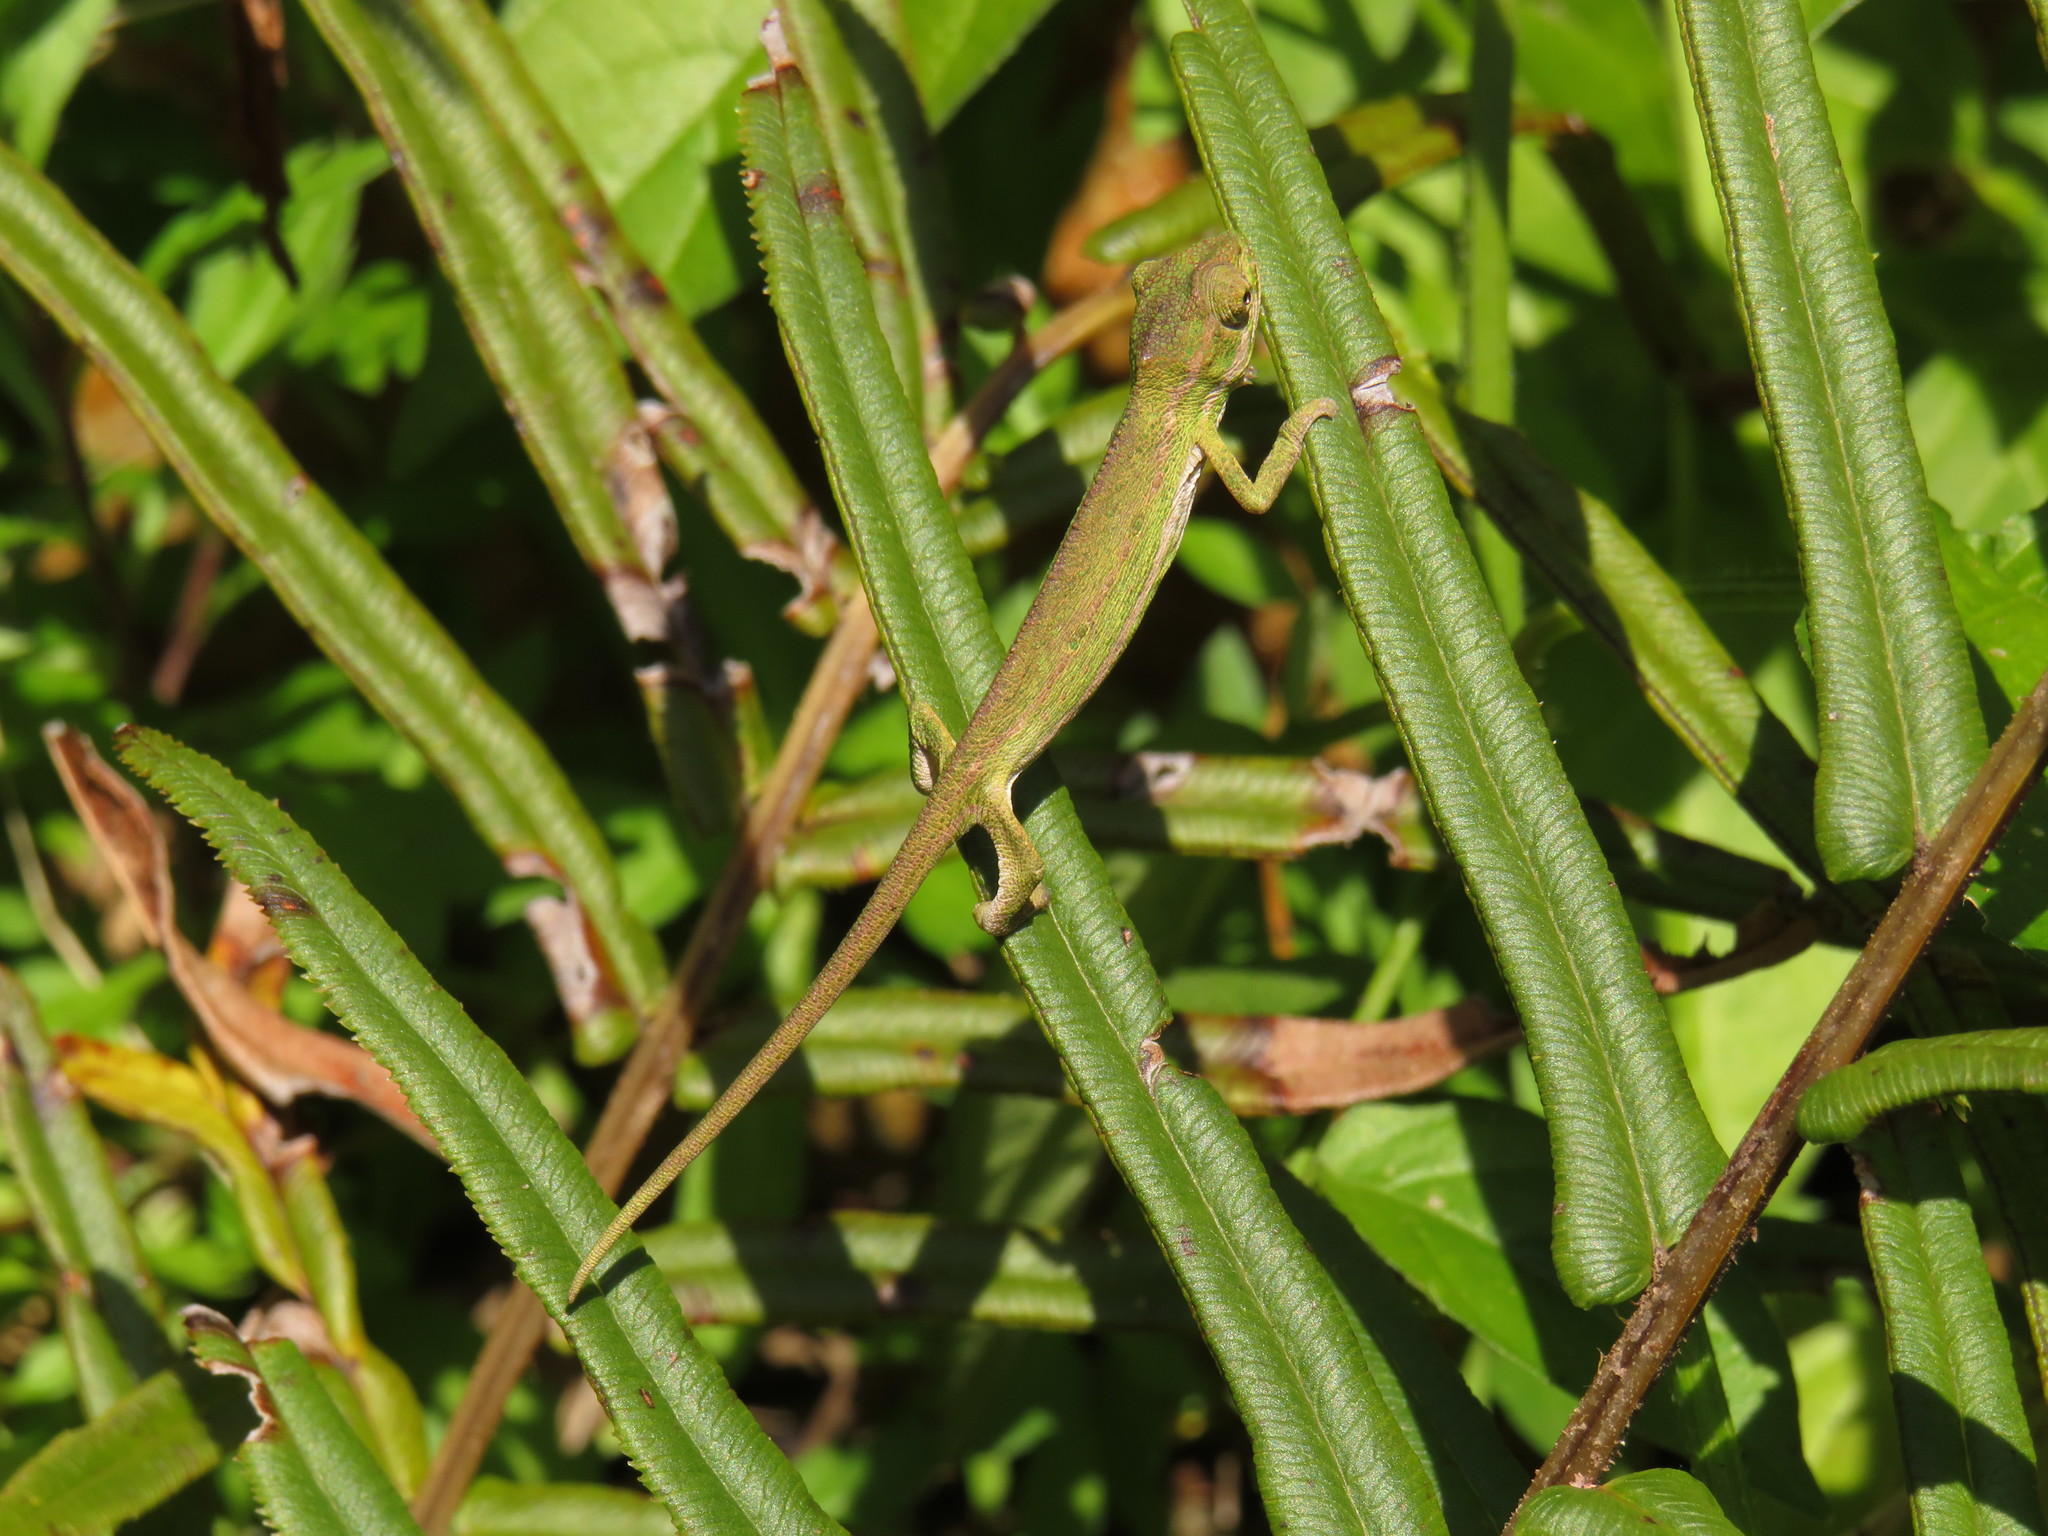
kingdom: Animalia
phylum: Chordata
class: Squamata
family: Chamaeleonidae
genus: Bradypodion
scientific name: Bradypodion pumilum
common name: Cape dwarf chameleon
